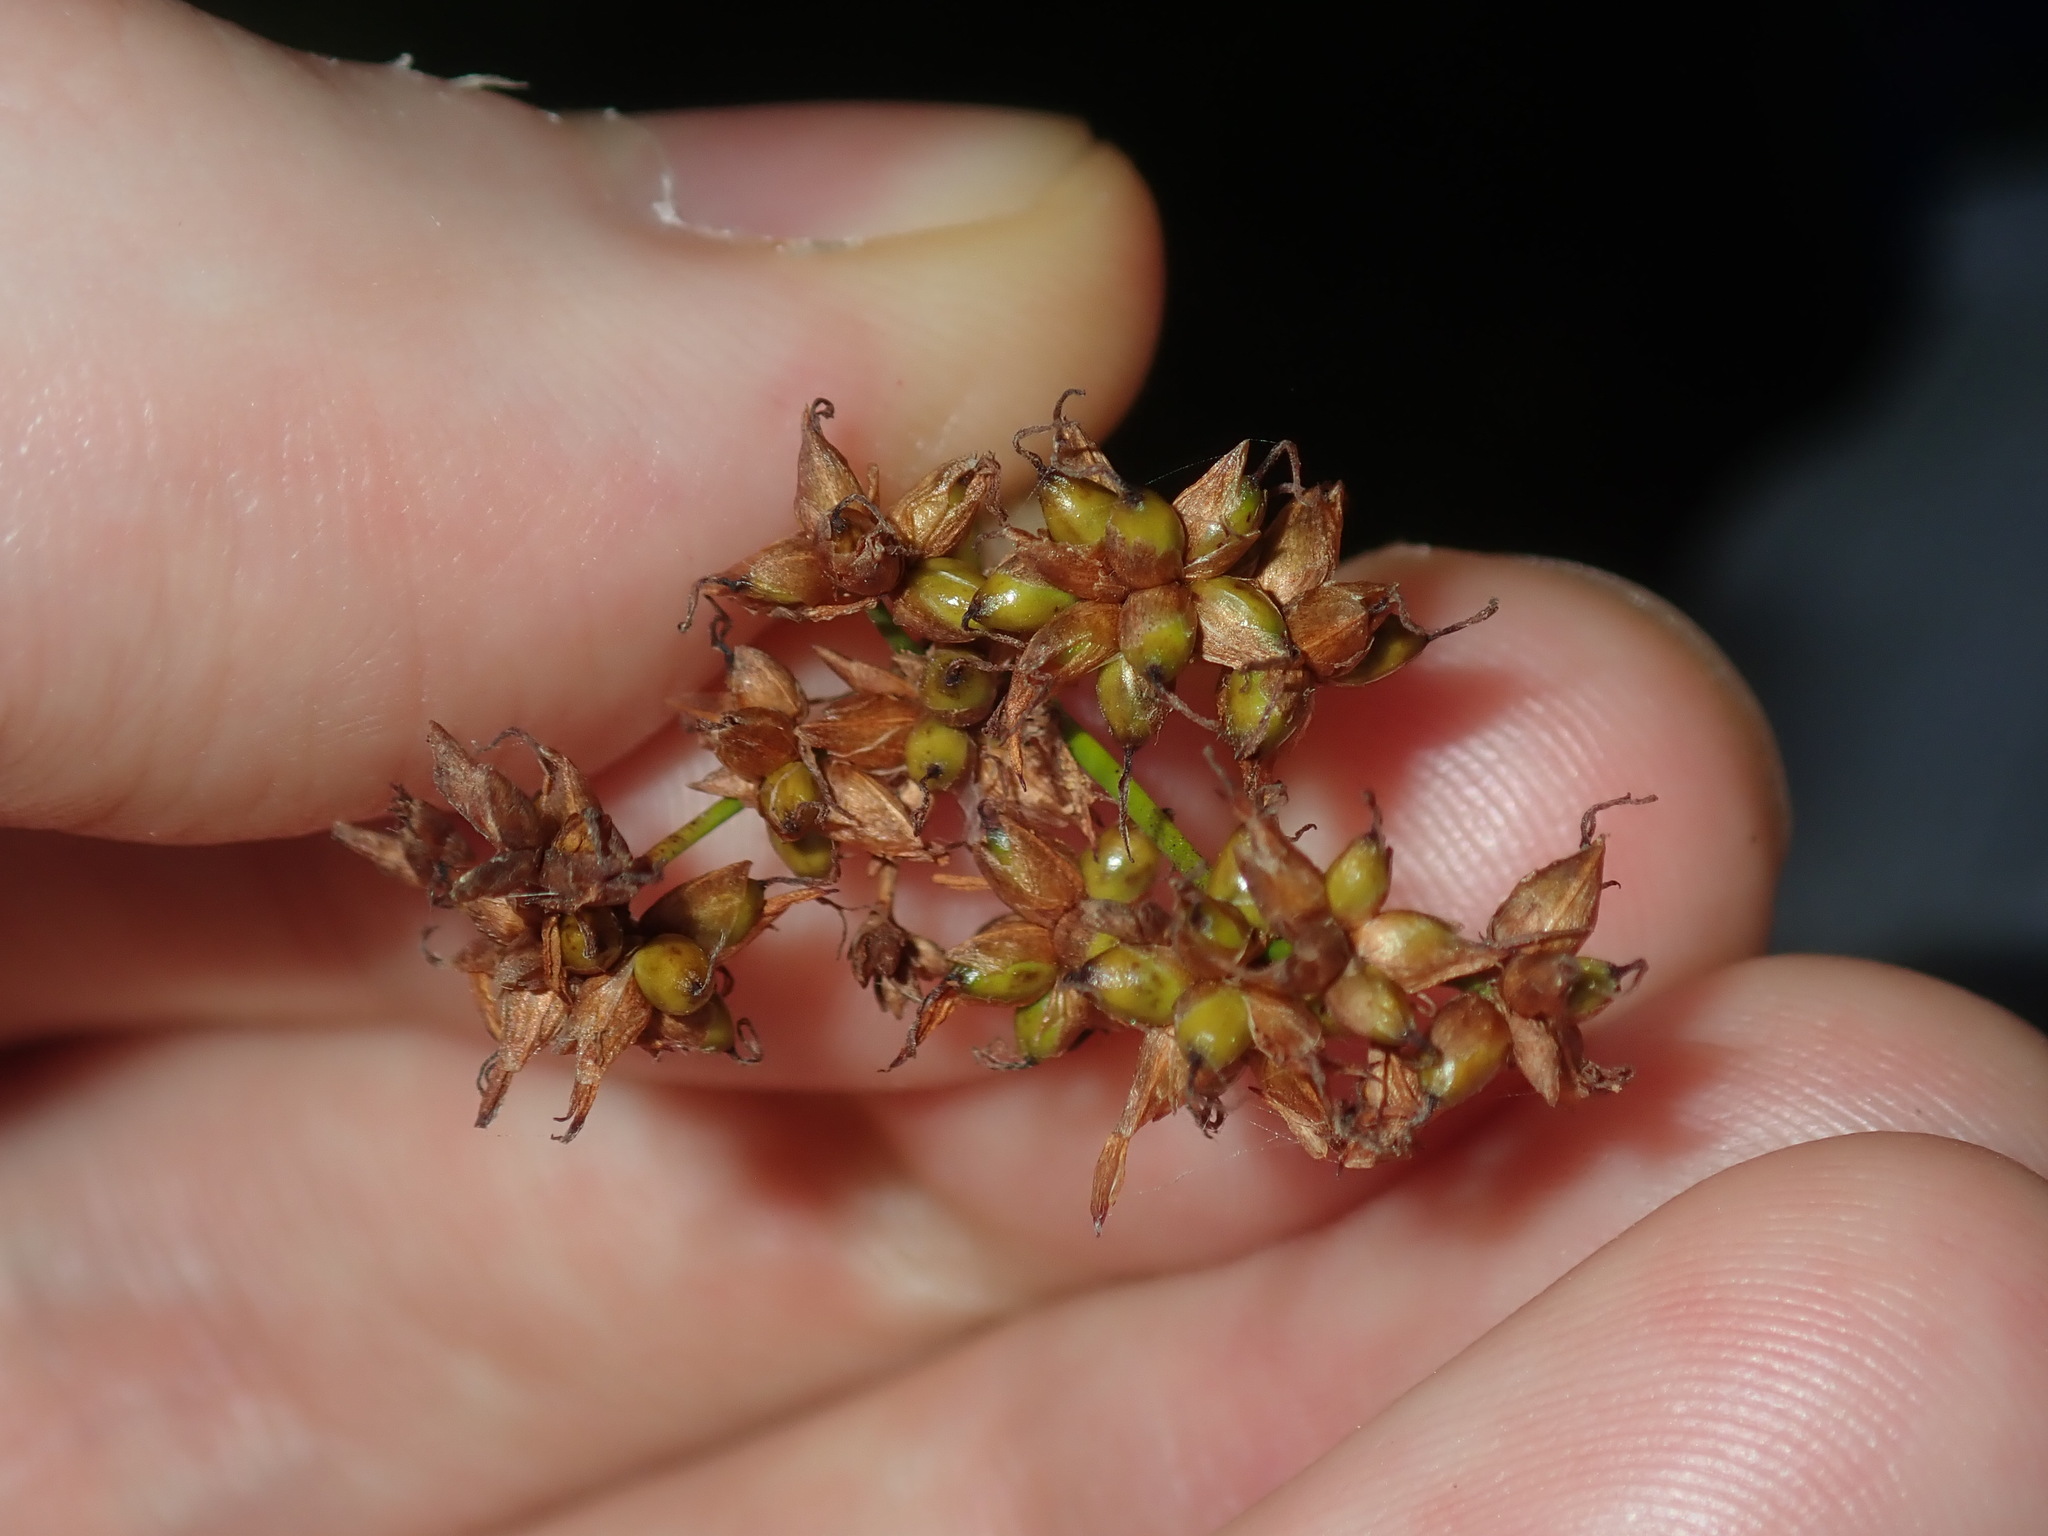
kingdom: Plantae
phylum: Tracheophyta
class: Liliopsida
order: Poales
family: Cyperaceae
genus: Cladium
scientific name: Cladium mariscus
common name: Great fen-sedge
